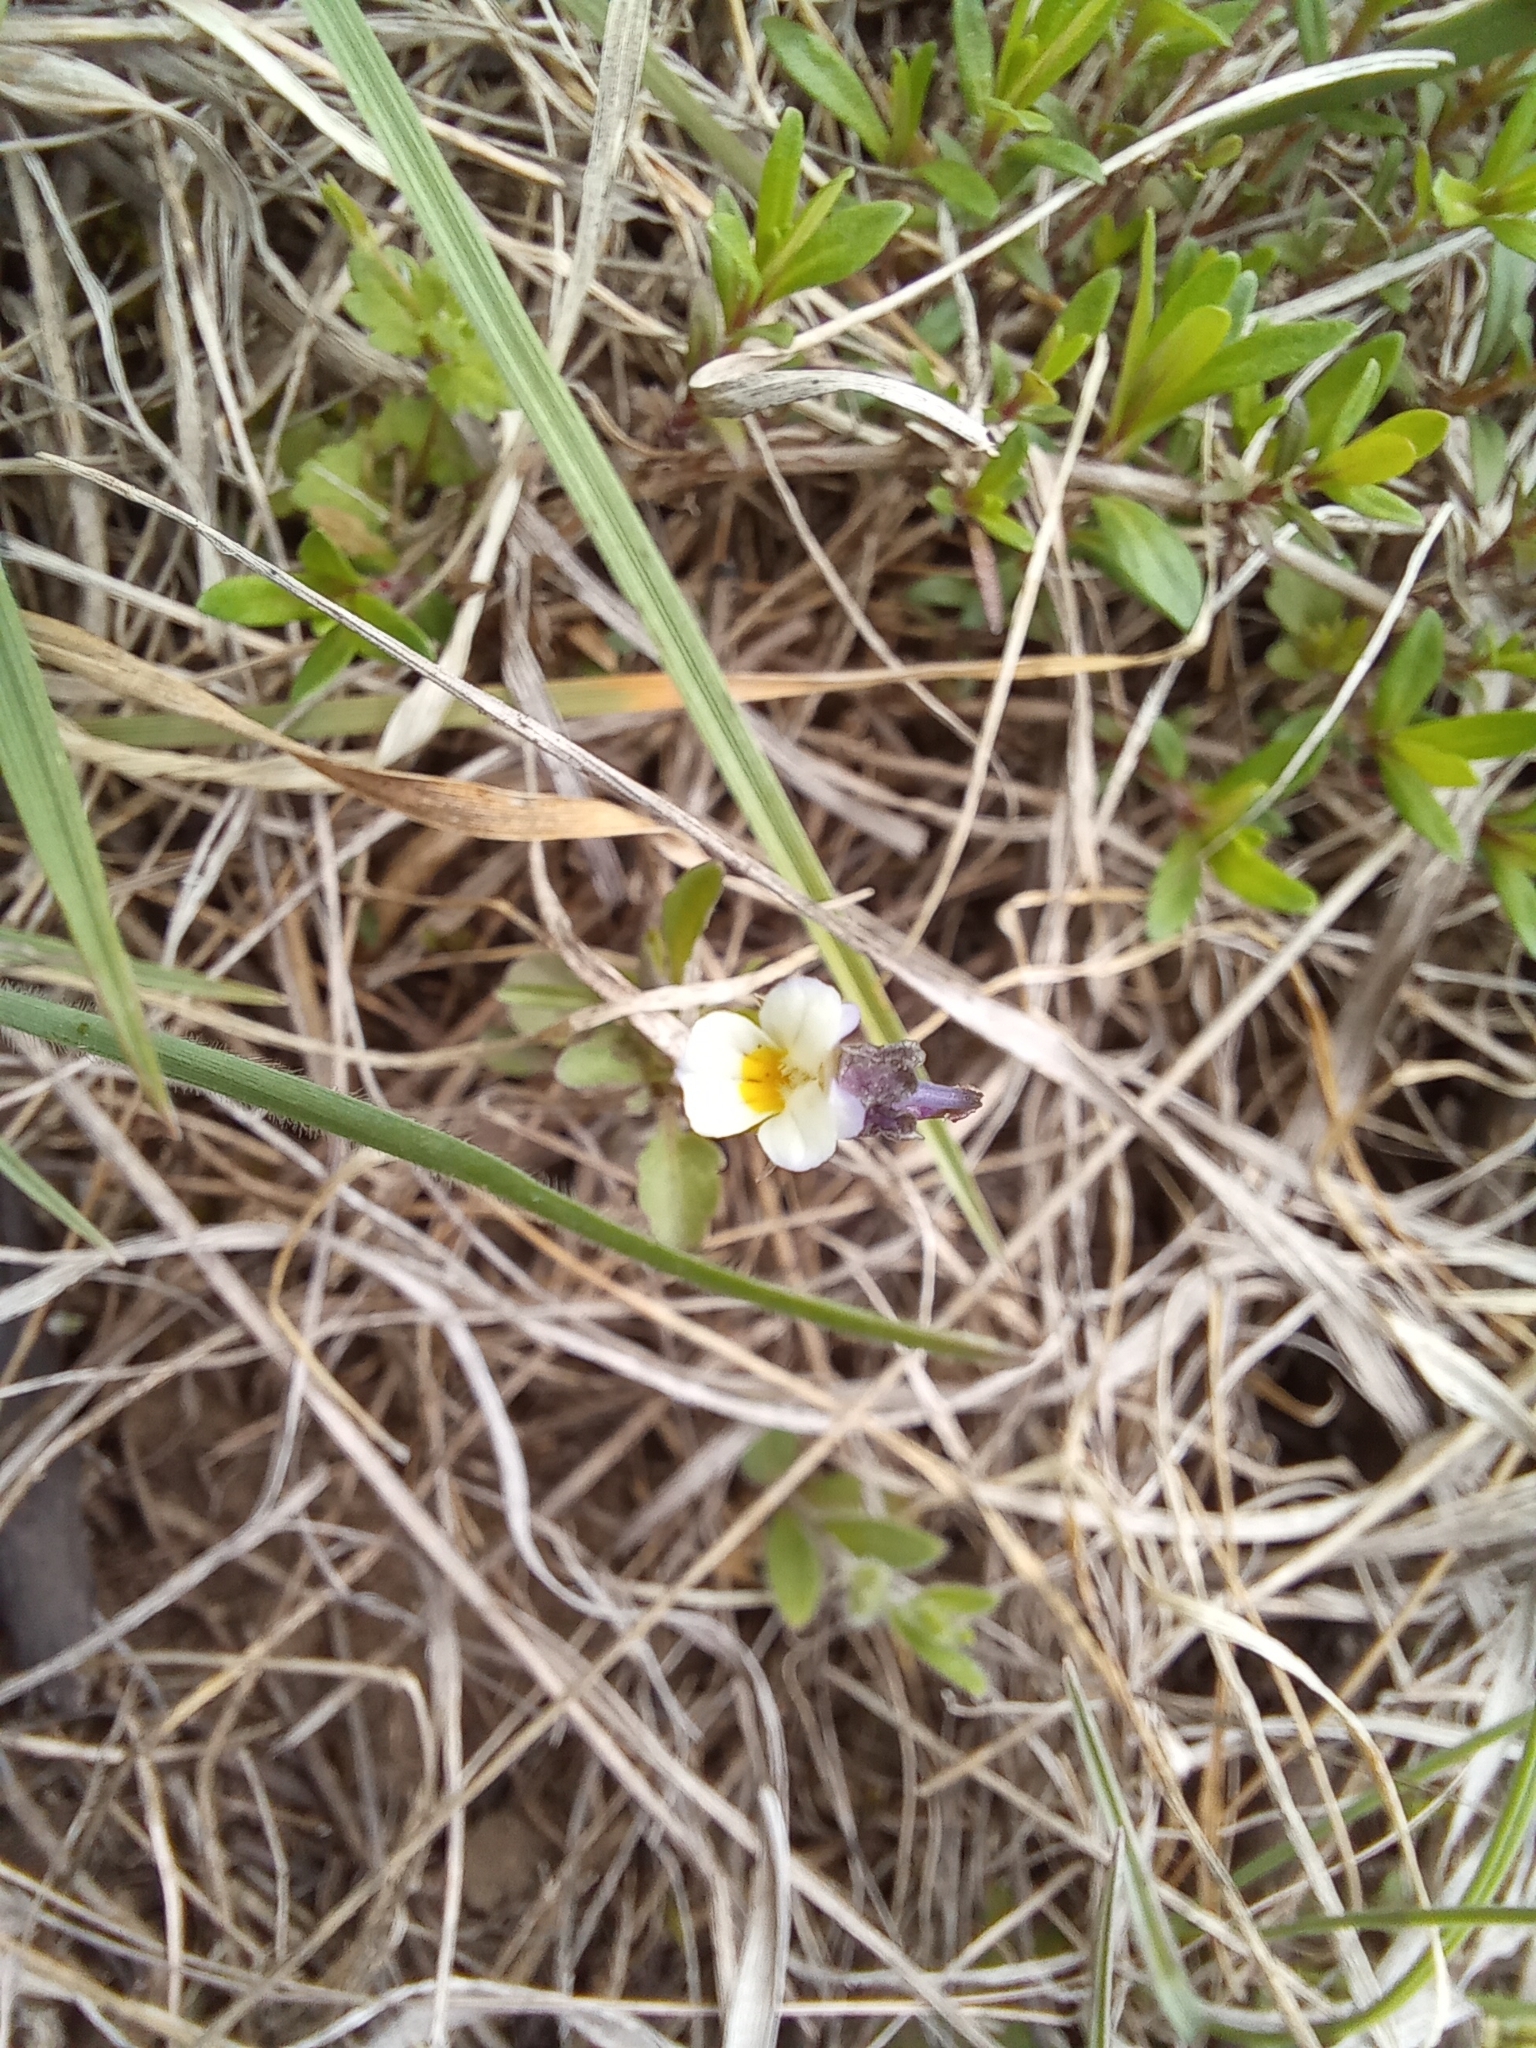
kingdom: Plantae
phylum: Tracheophyta
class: Magnoliopsida
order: Malpighiales
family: Violaceae
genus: Viola
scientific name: Viola arvensis
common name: Field pansy
